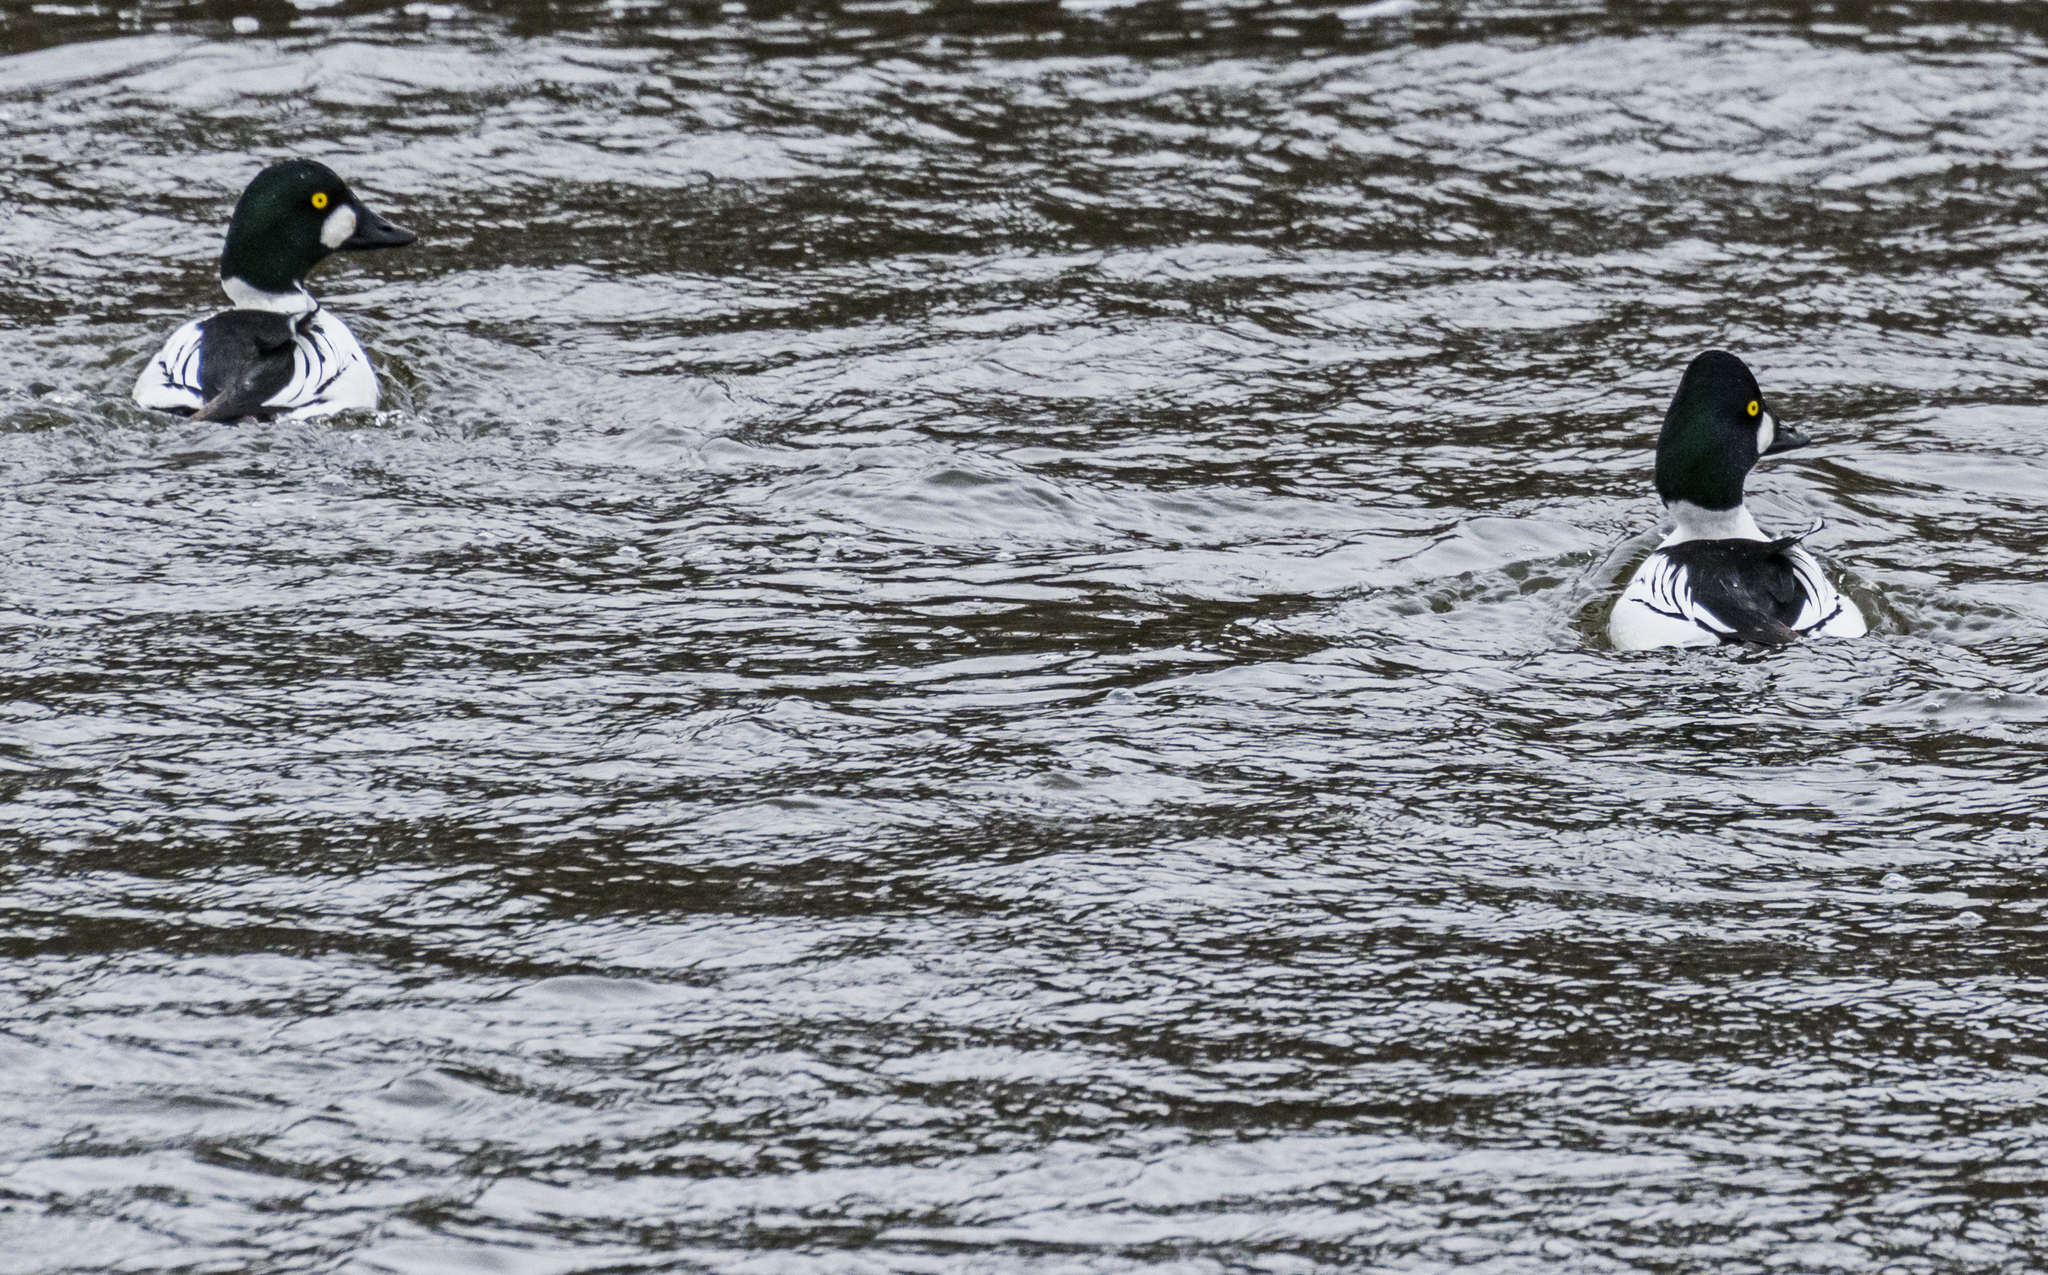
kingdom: Animalia
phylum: Chordata
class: Aves
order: Anseriformes
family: Anatidae
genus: Bucephala
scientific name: Bucephala clangula
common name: Common goldeneye
